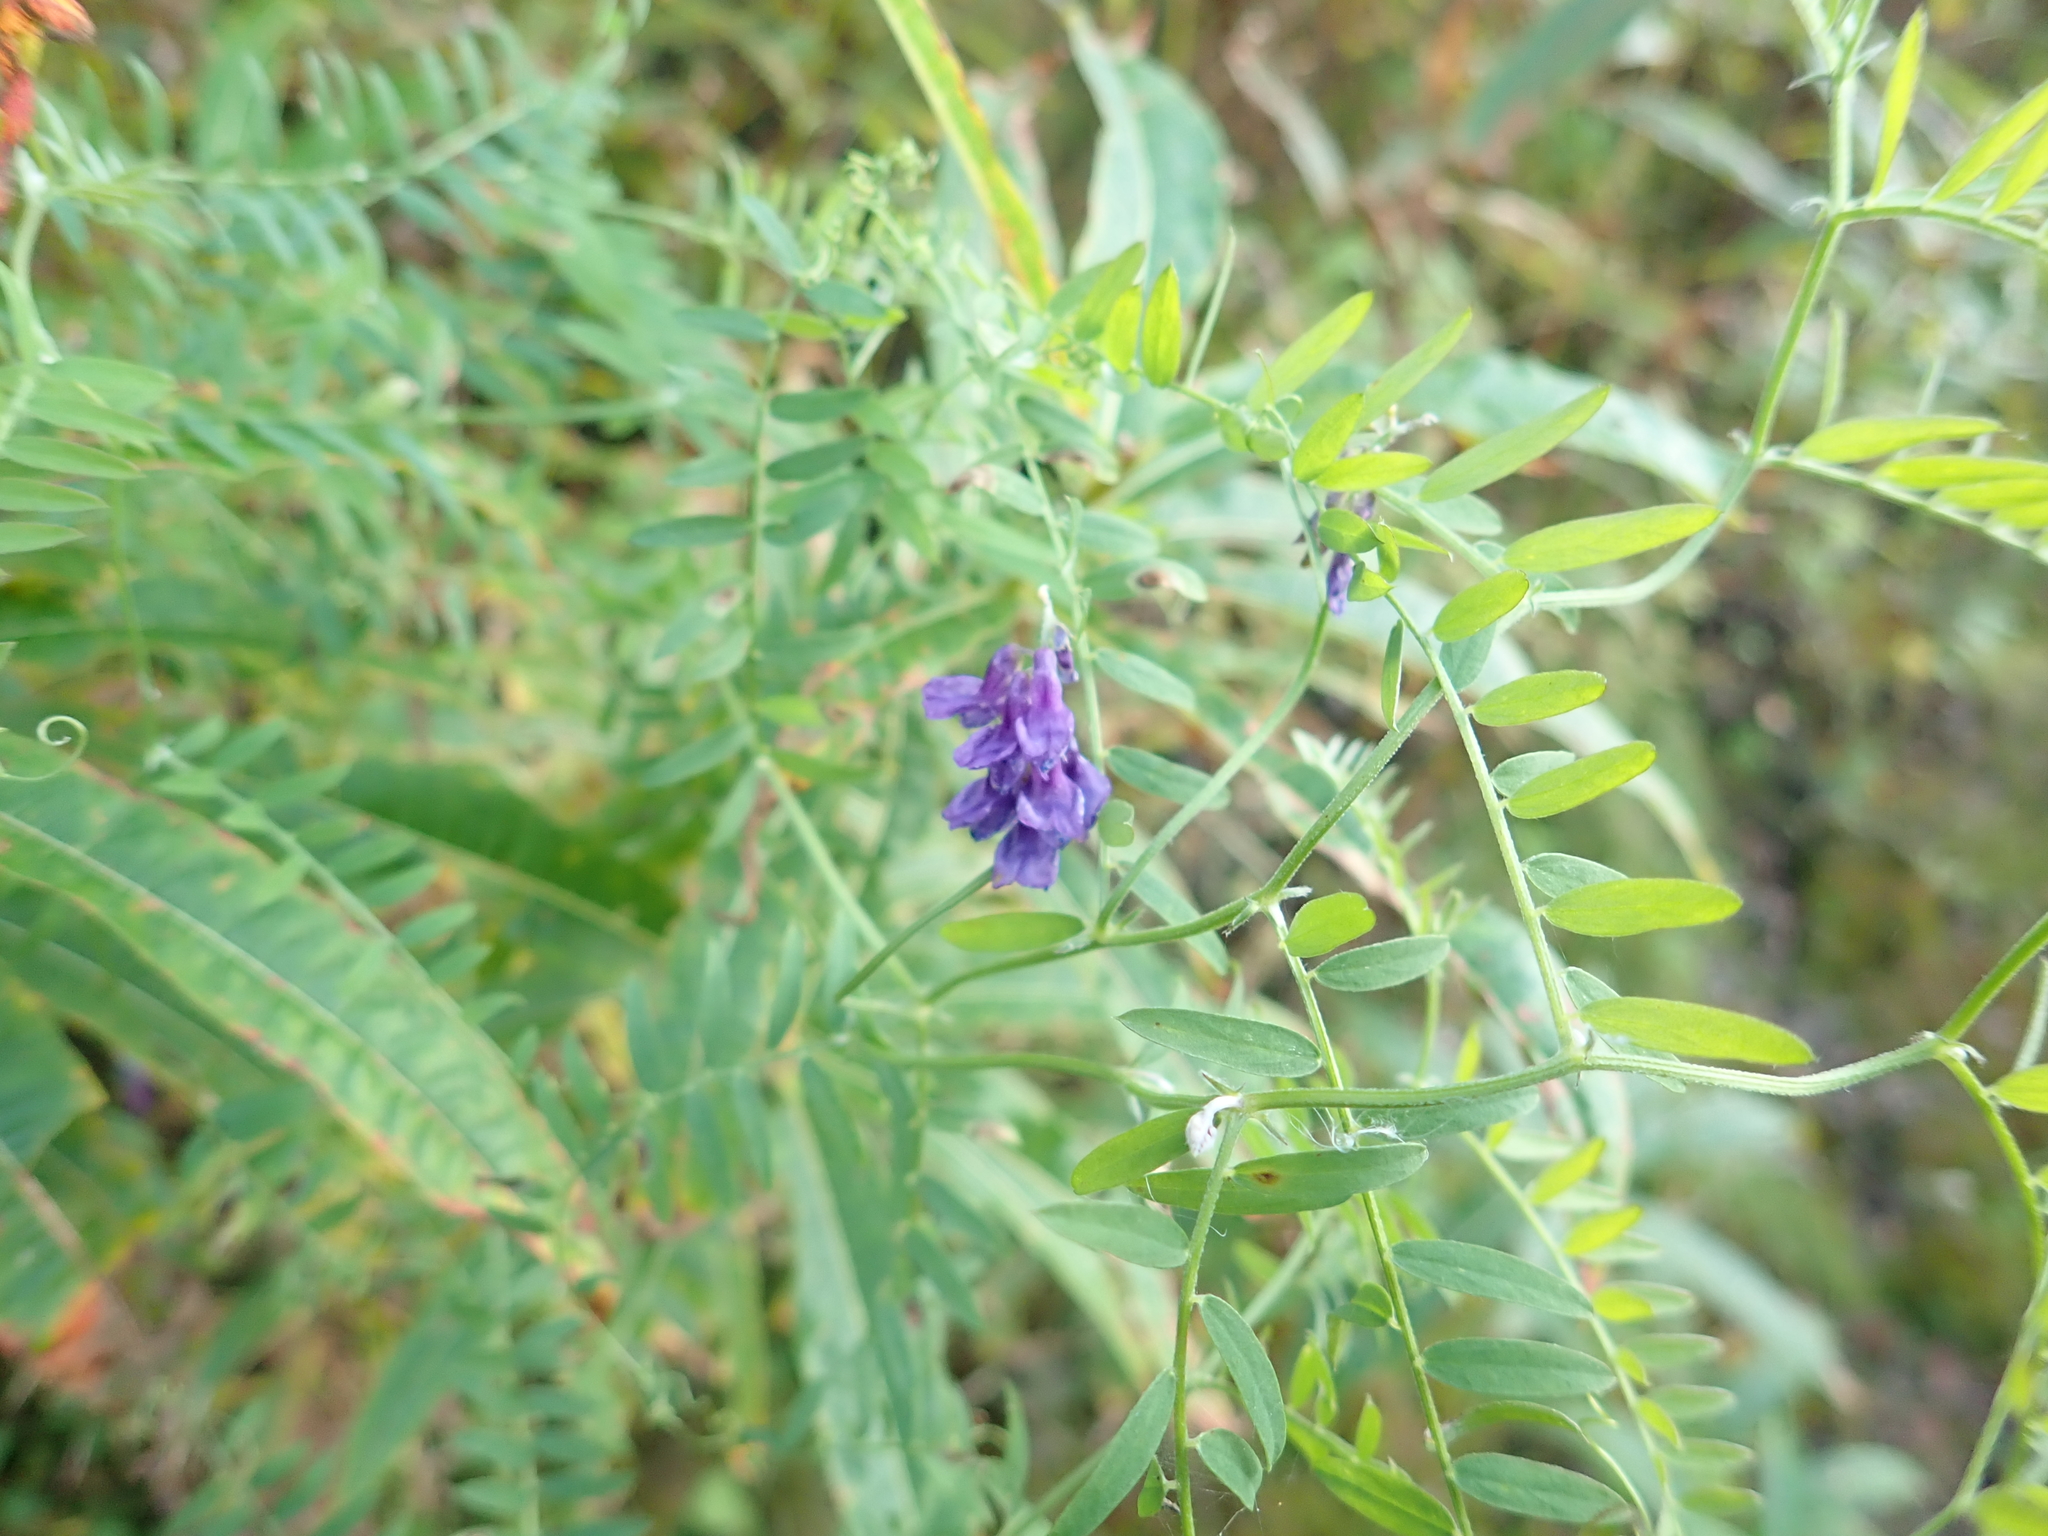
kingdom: Plantae
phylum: Tracheophyta
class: Magnoliopsida
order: Fabales
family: Fabaceae
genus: Vicia
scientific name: Vicia cracca
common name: Bird vetch
